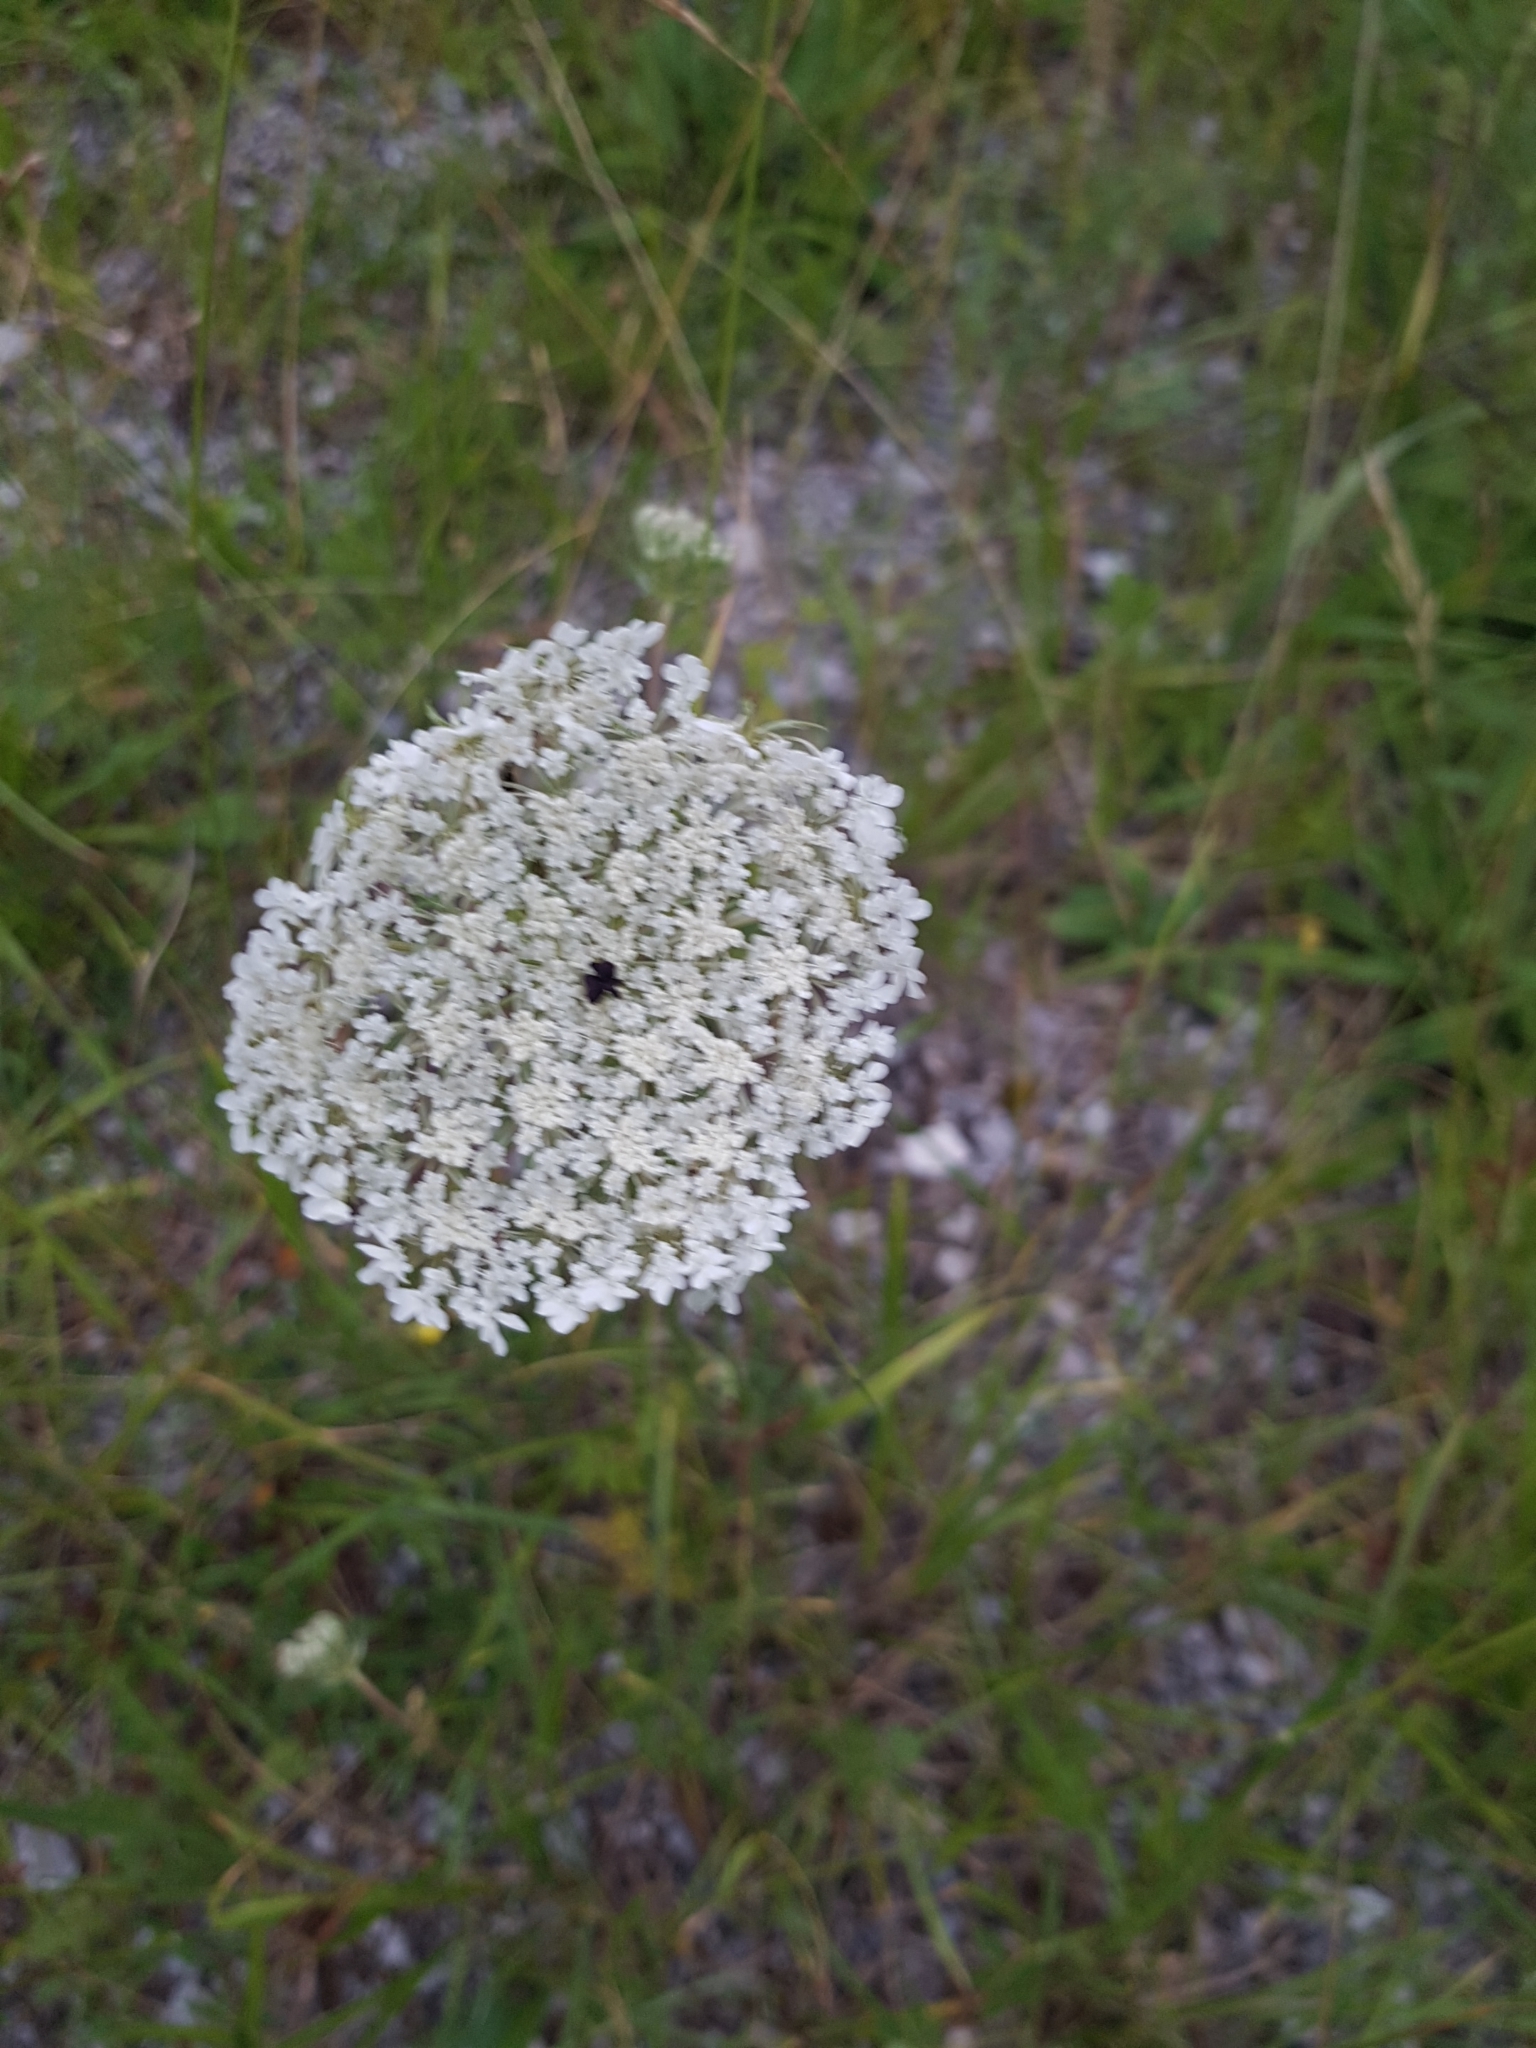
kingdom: Plantae
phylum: Tracheophyta
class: Magnoliopsida
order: Apiales
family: Apiaceae
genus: Daucus
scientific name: Daucus carota
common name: Wild carrot
